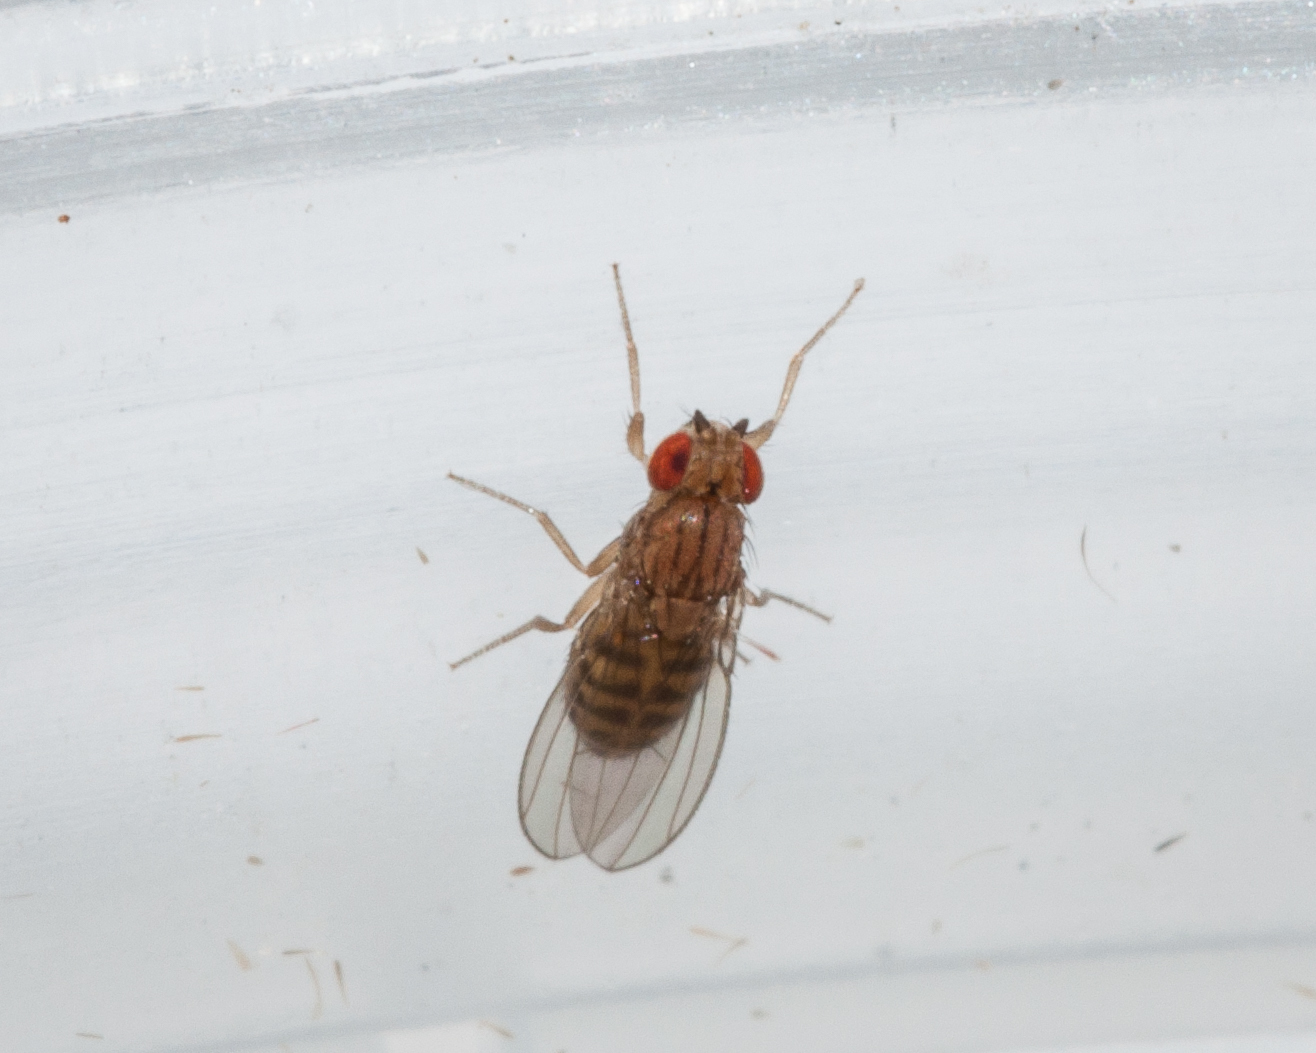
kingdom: Animalia
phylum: Arthropoda
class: Insecta
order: Diptera
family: Drosophilidae
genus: Drosophila
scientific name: Drosophila busckii
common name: Pomace fly
